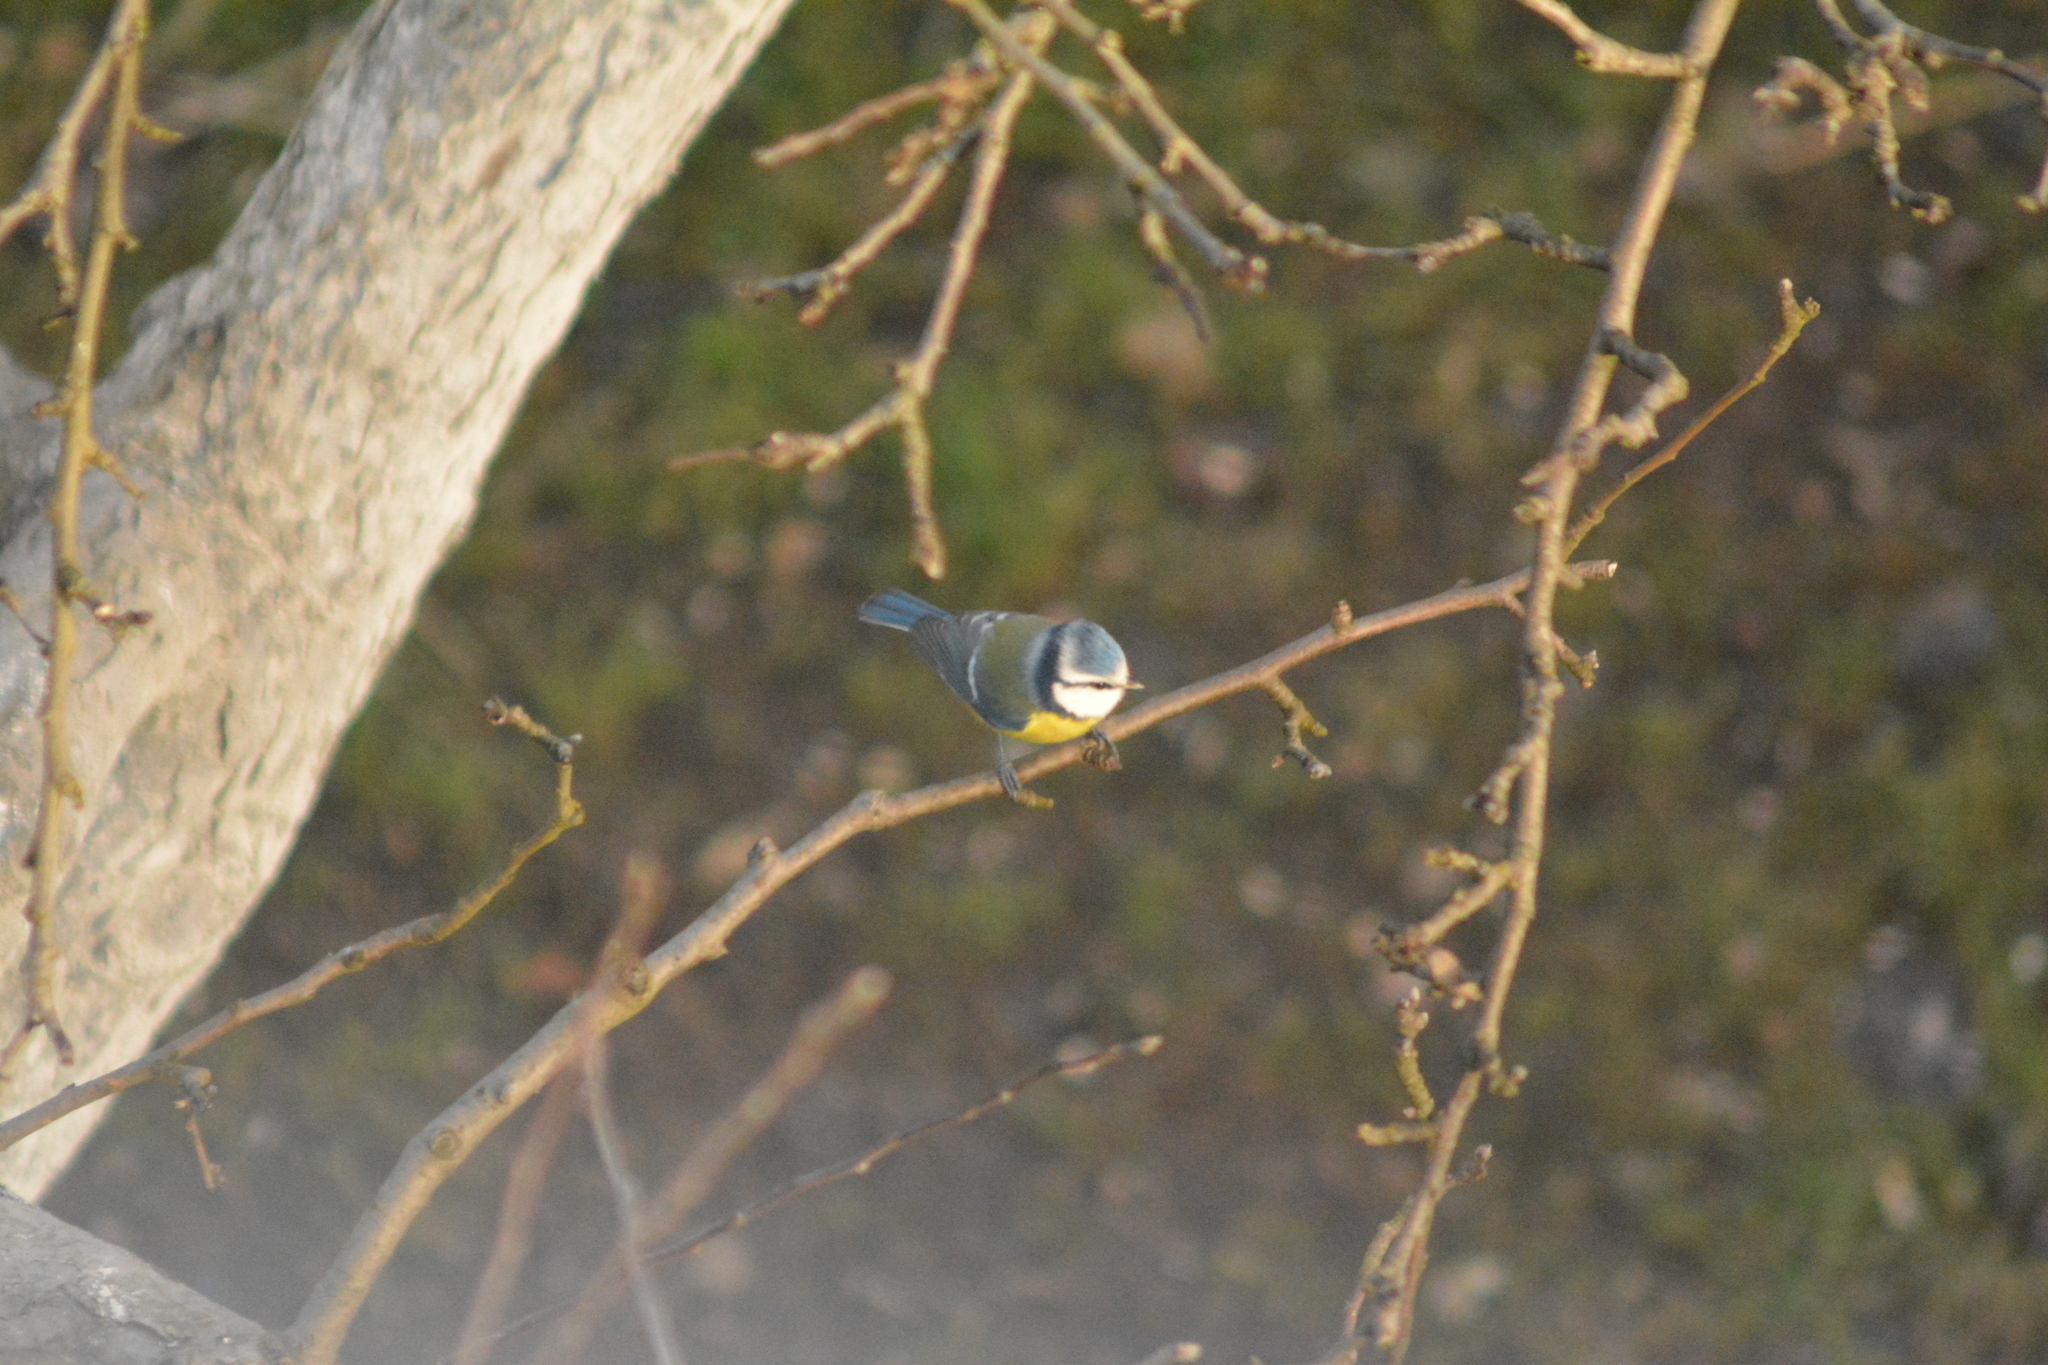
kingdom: Animalia
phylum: Chordata
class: Aves
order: Passeriformes
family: Paridae
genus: Cyanistes
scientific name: Cyanistes caeruleus
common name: Eurasian blue tit
